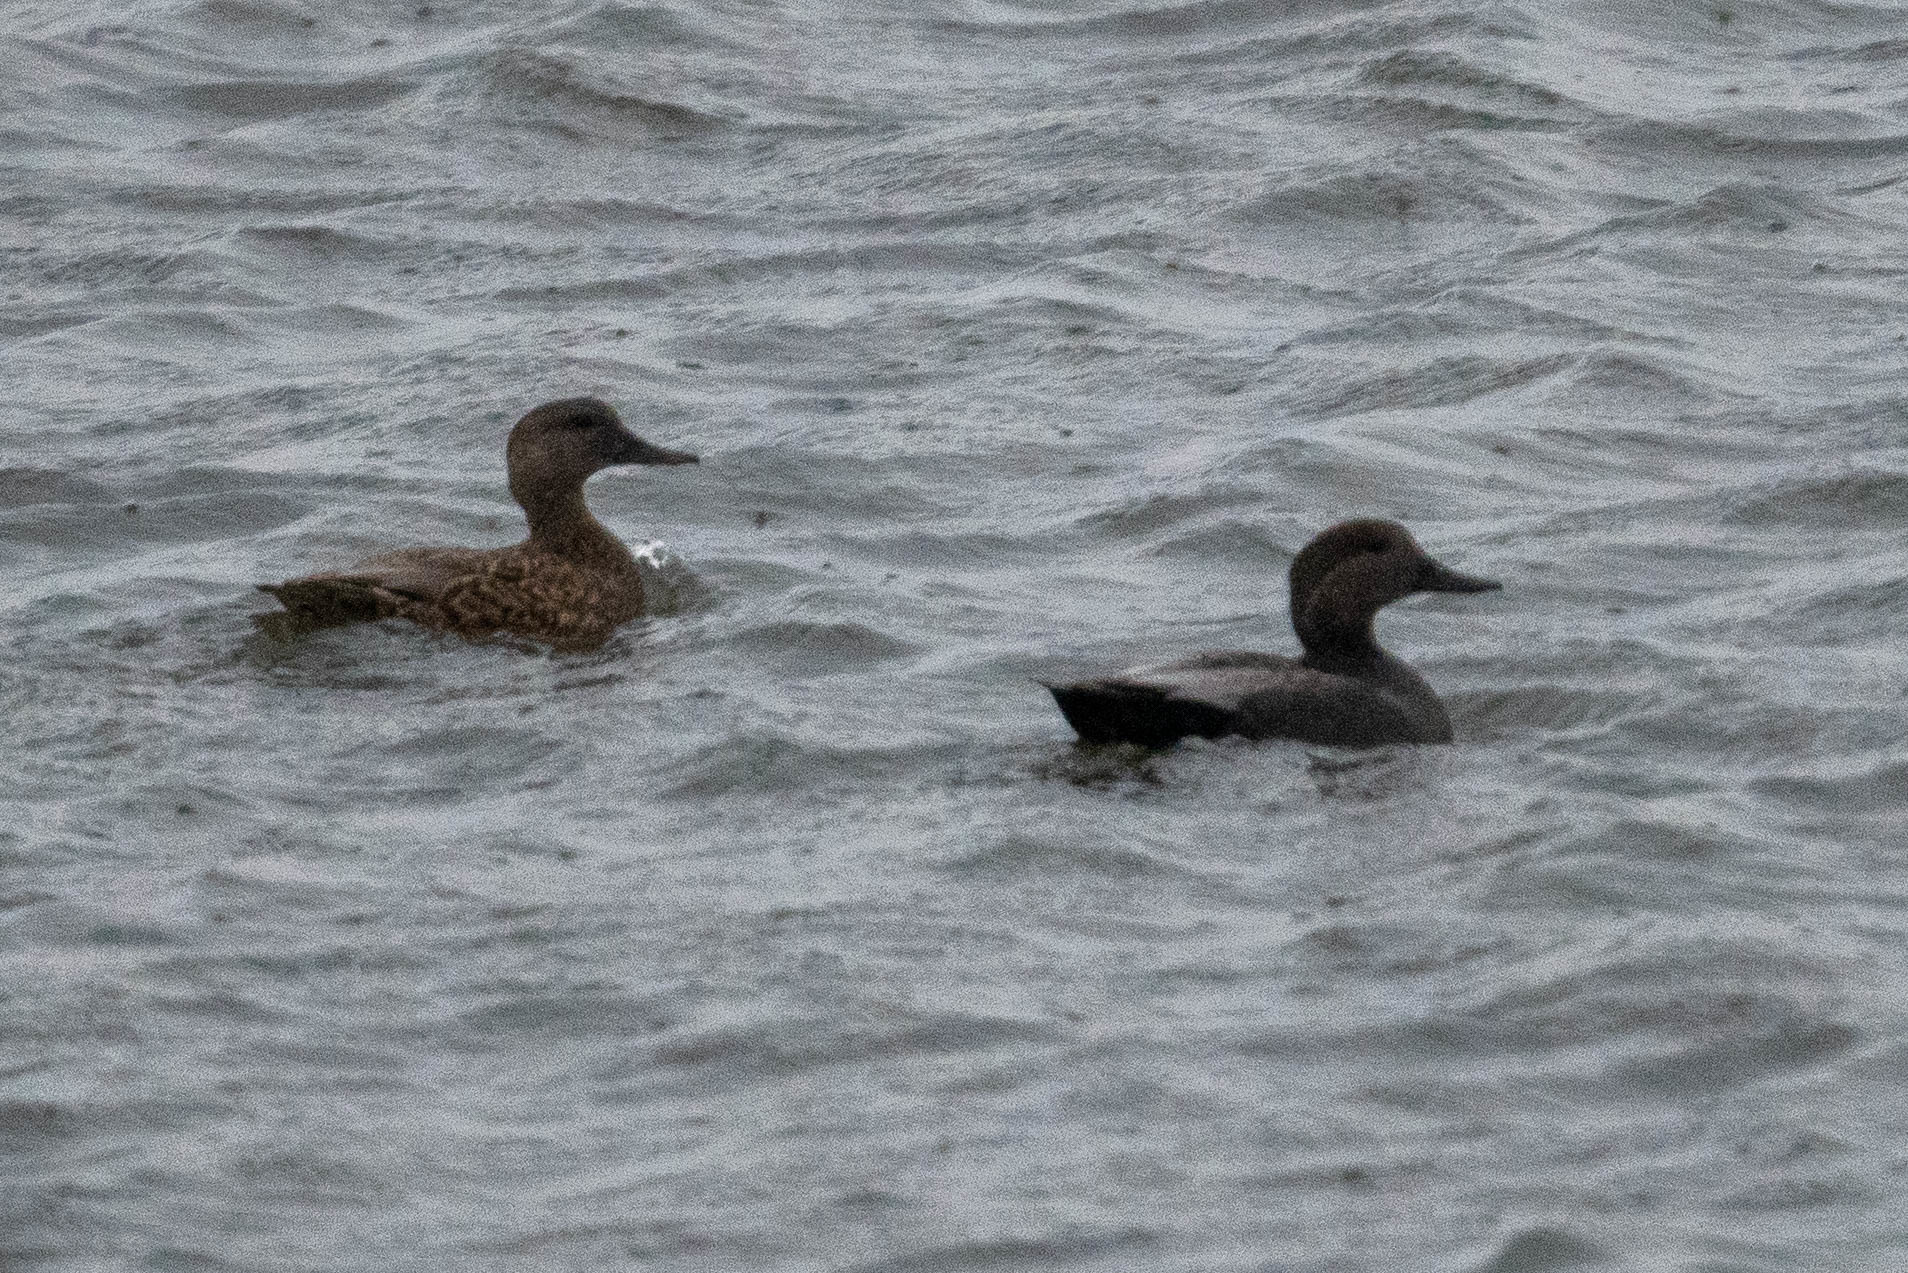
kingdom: Animalia
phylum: Chordata
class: Aves
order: Anseriformes
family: Anatidae
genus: Mareca
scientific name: Mareca strepera
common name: Gadwall
